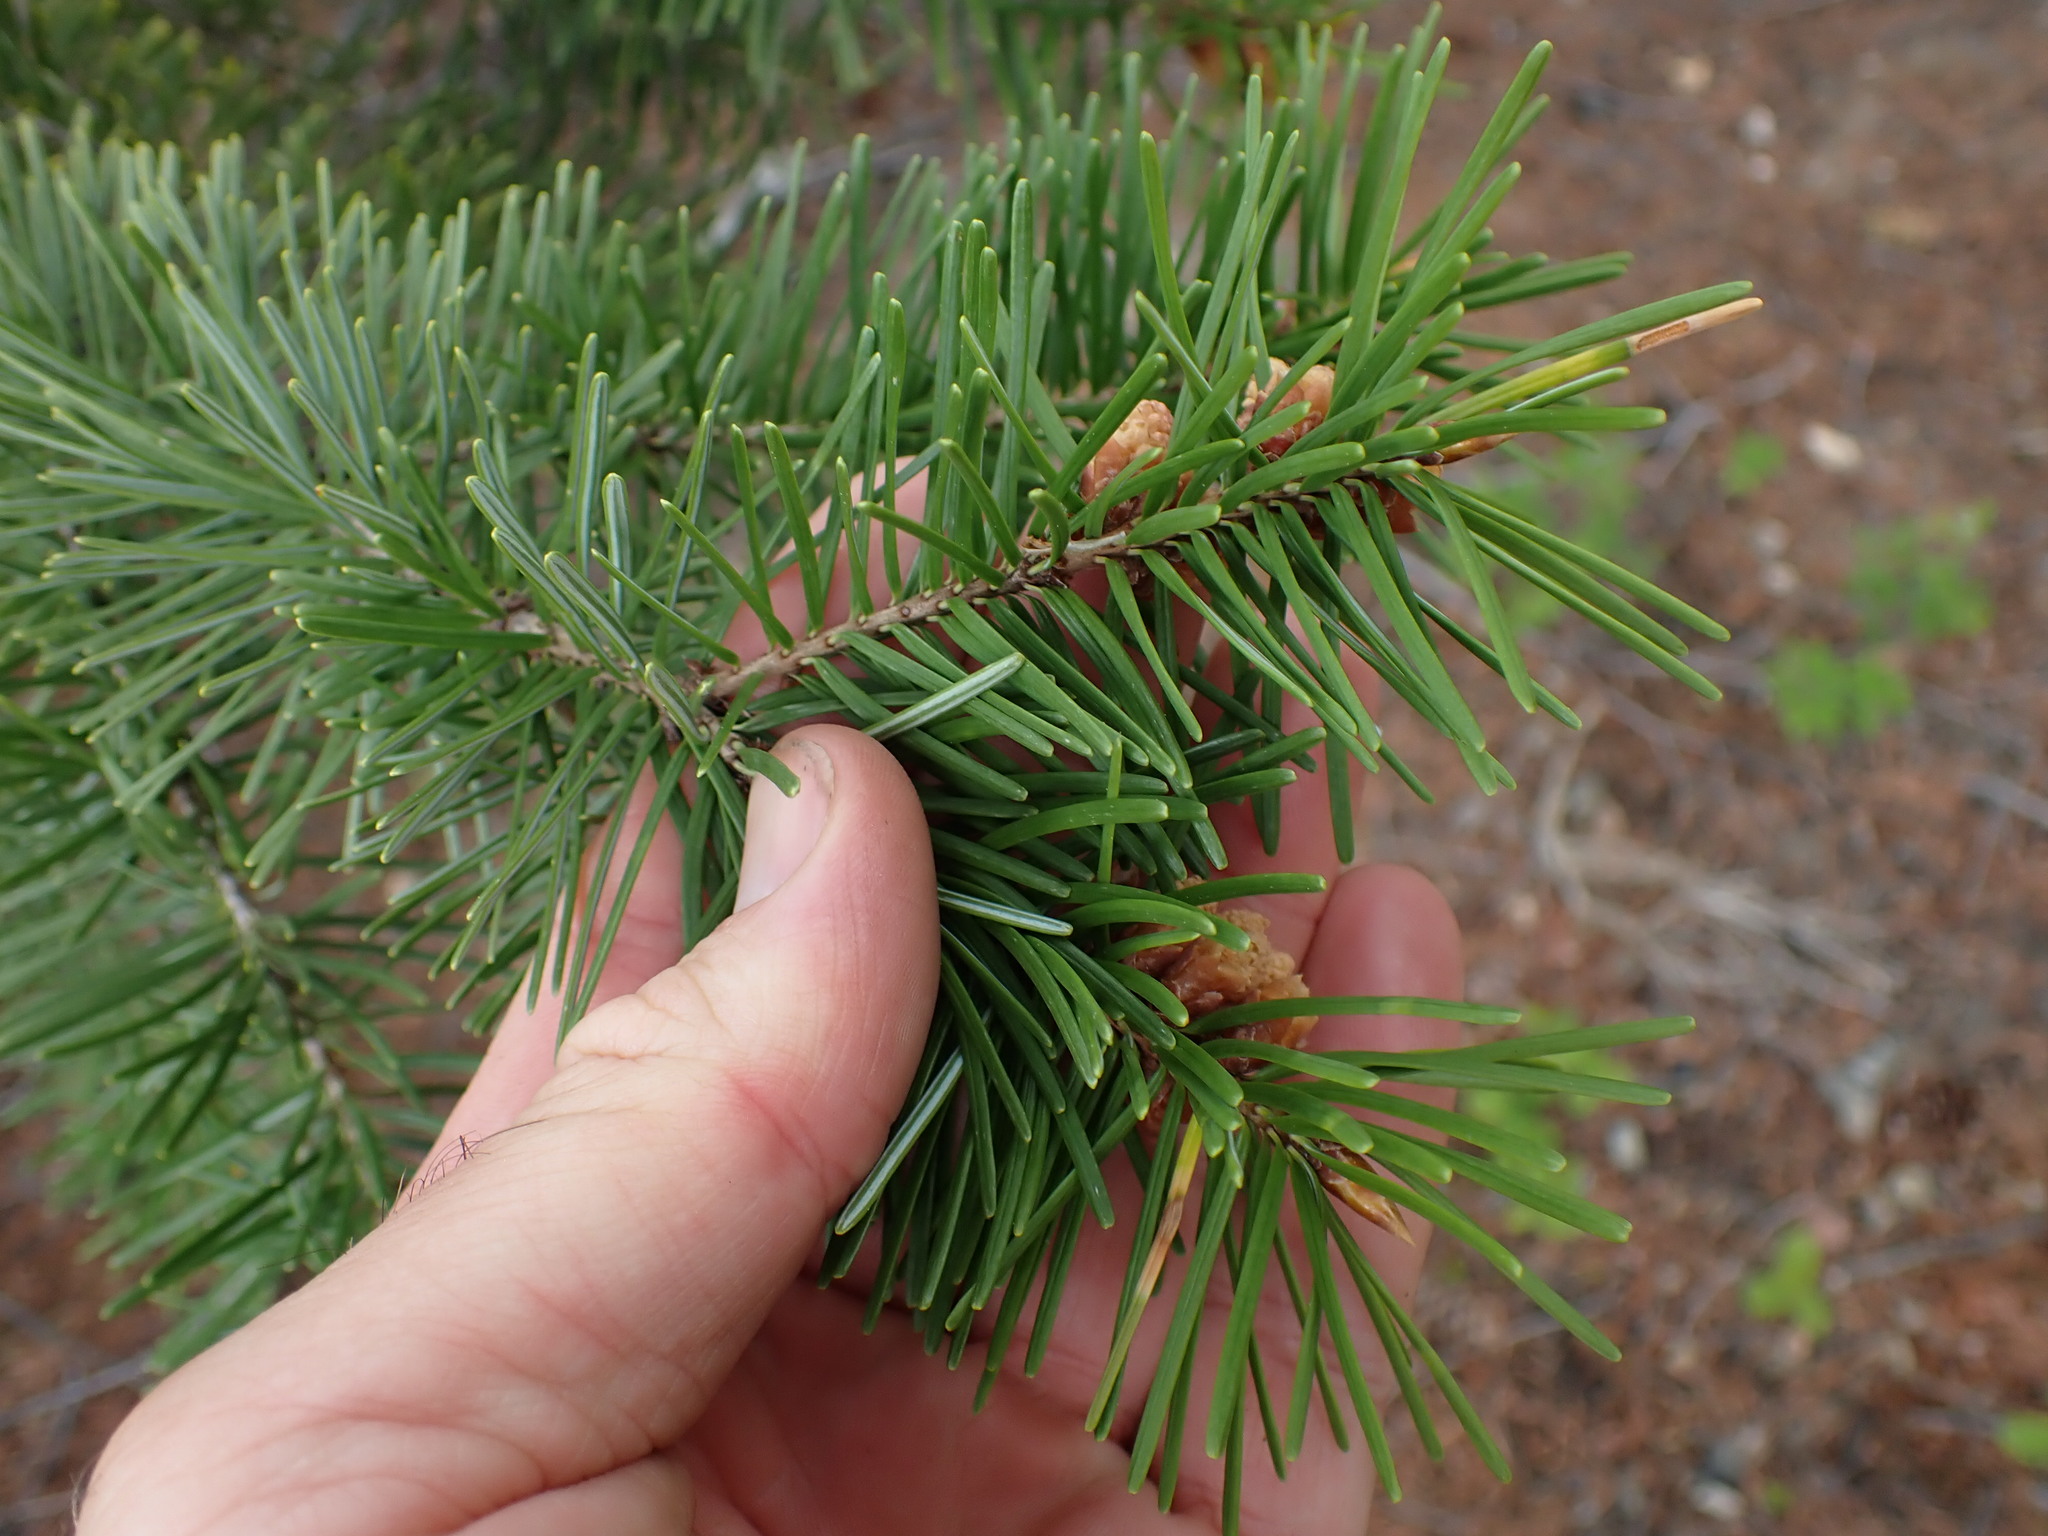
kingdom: Plantae
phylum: Tracheophyta
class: Pinopsida
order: Pinales
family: Pinaceae
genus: Pseudotsuga
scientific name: Pseudotsuga menziesii
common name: Douglas fir
